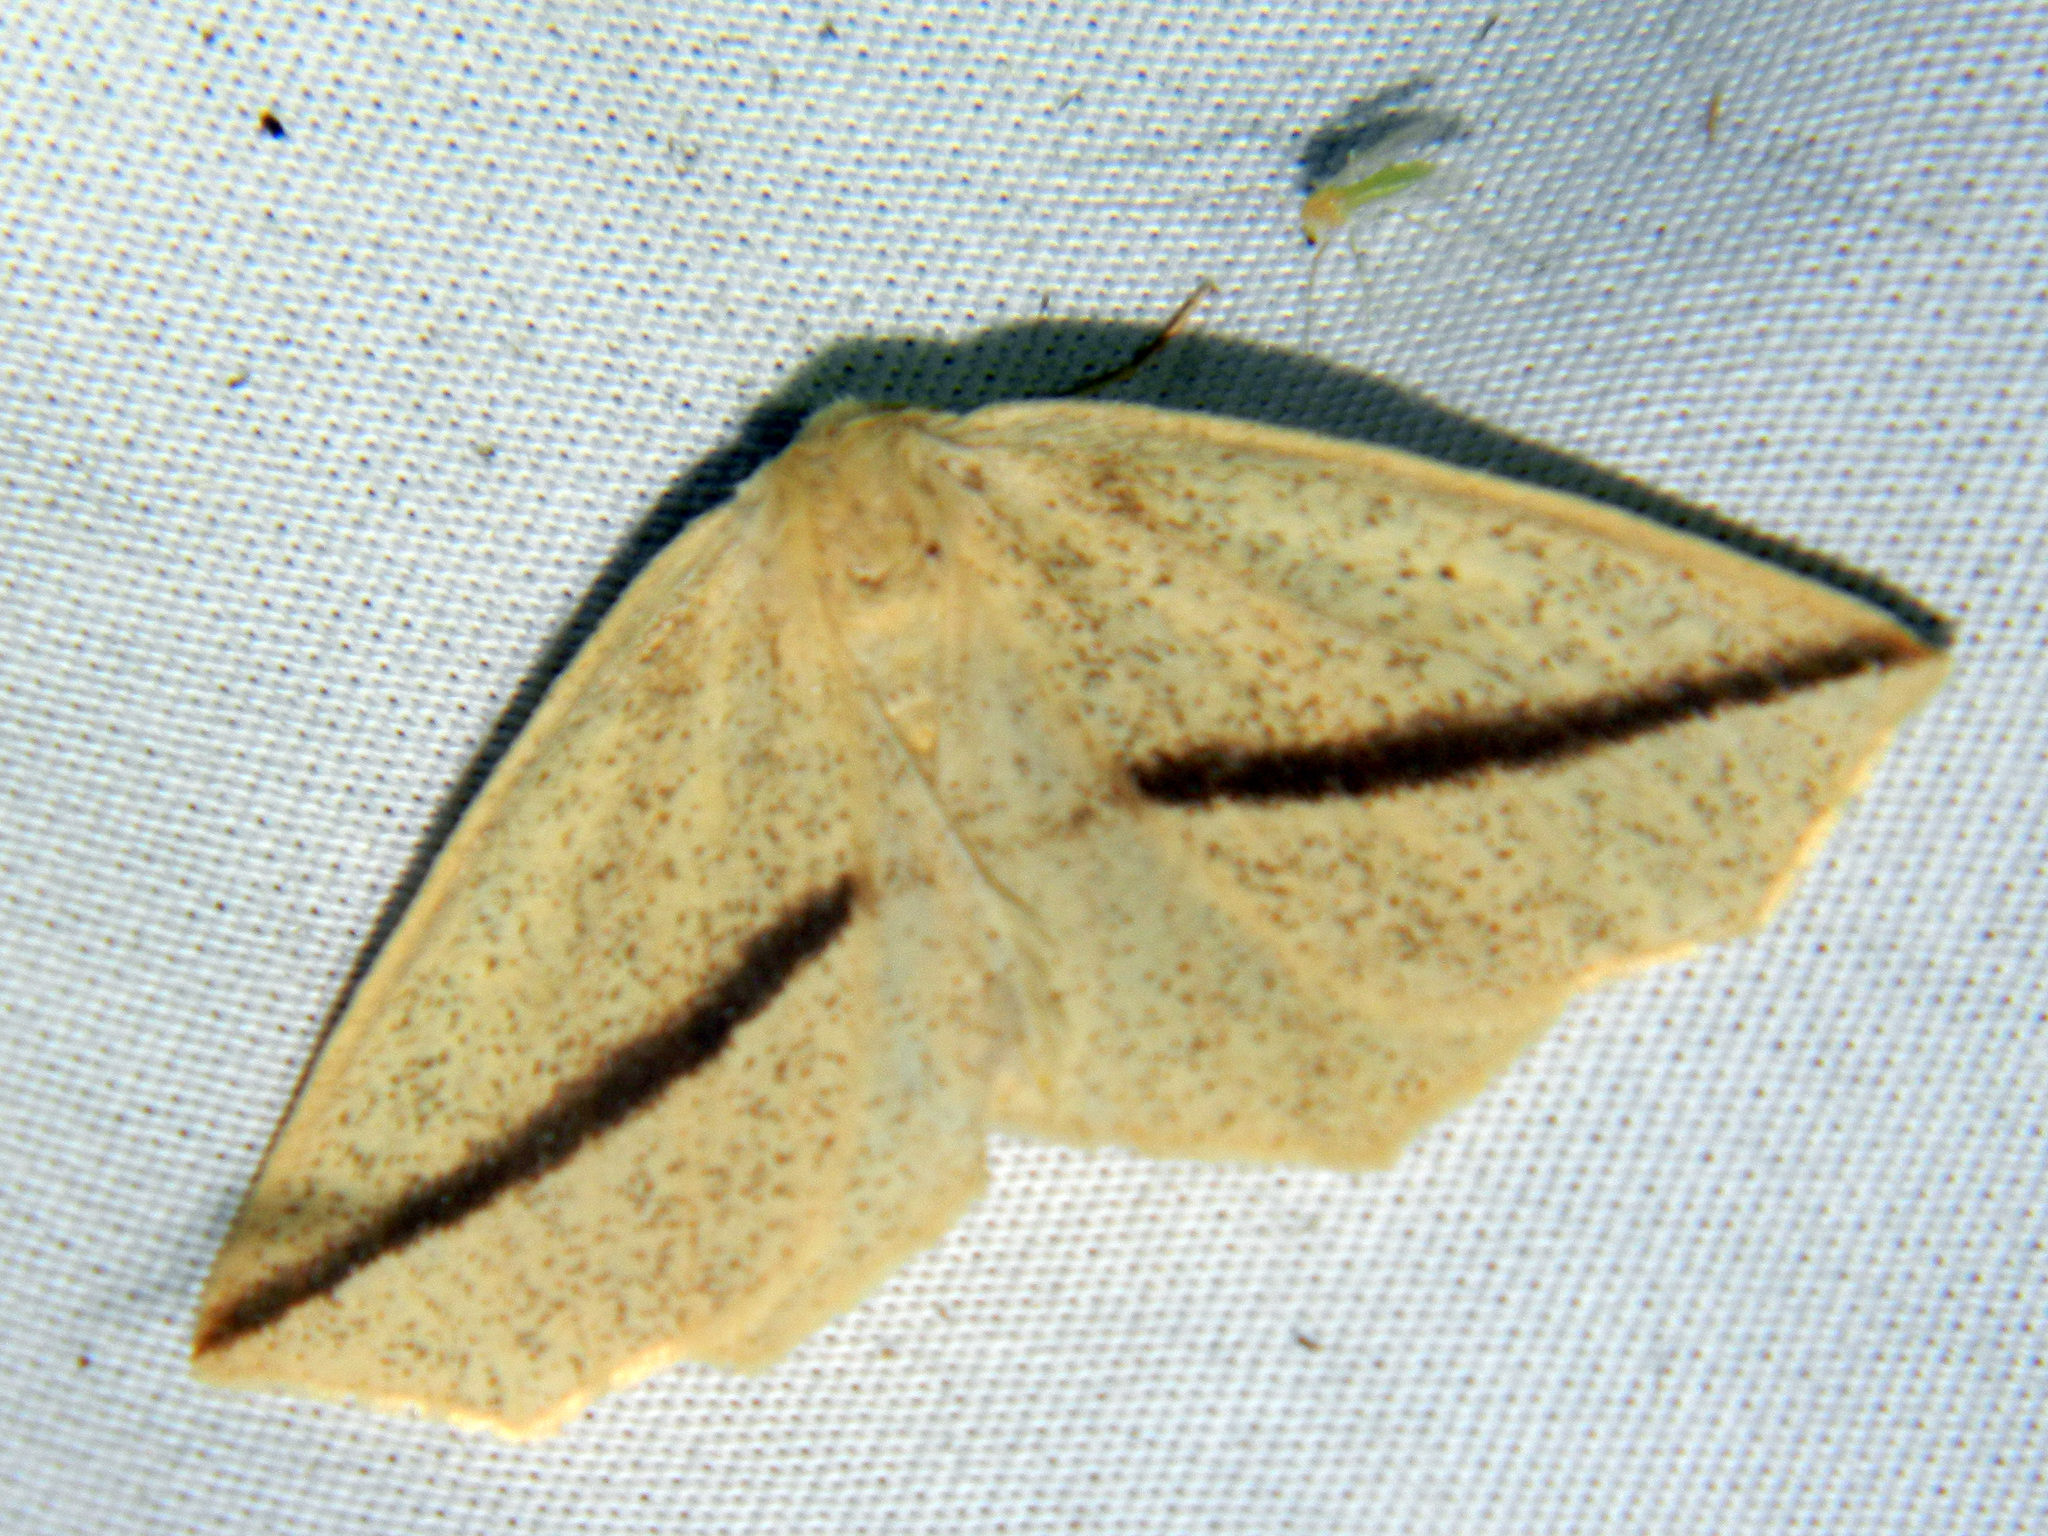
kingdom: Animalia
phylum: Arthropoda
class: Insecta
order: Lepidoptera
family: Geometridae
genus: Tetracis
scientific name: Tetracis crocallata
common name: Yellow slant-line
